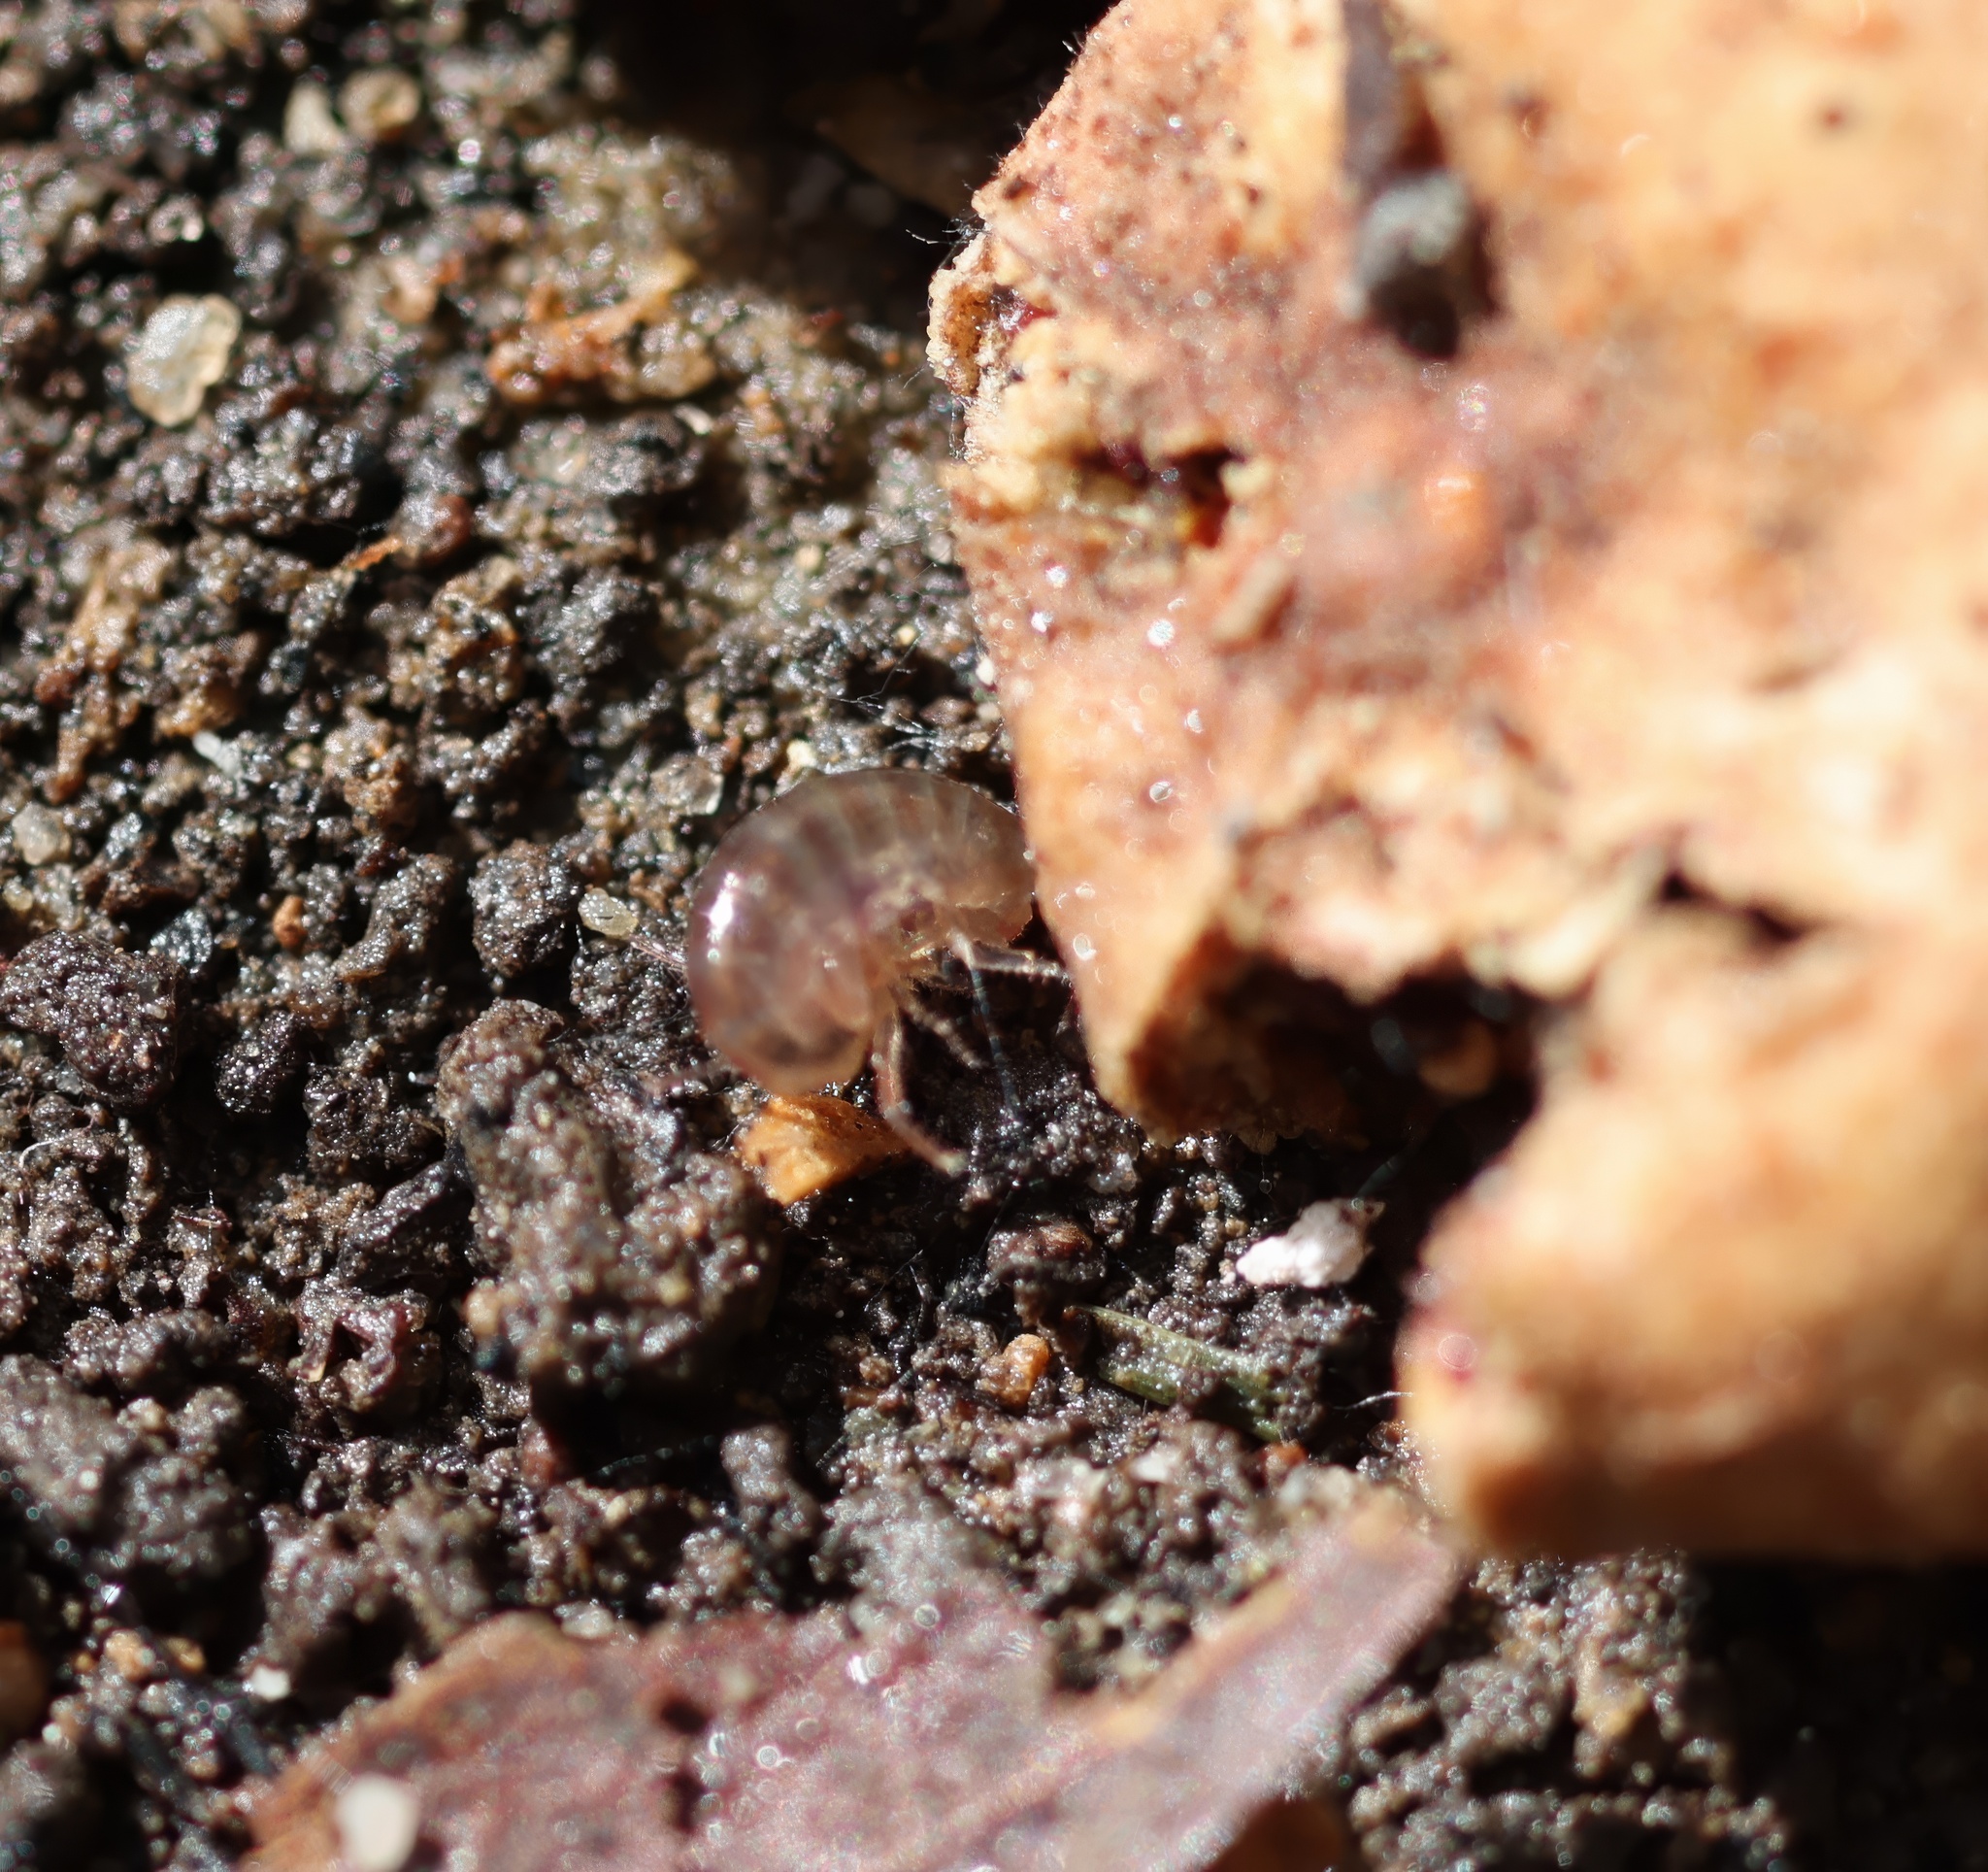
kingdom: Animalia
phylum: Arthropoda
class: Malacostraca
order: Amphipoda
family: Arcitalitridae
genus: Arcitalitrus
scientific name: Arcitalitrus sylvaticus
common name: Gammarid amphipod
